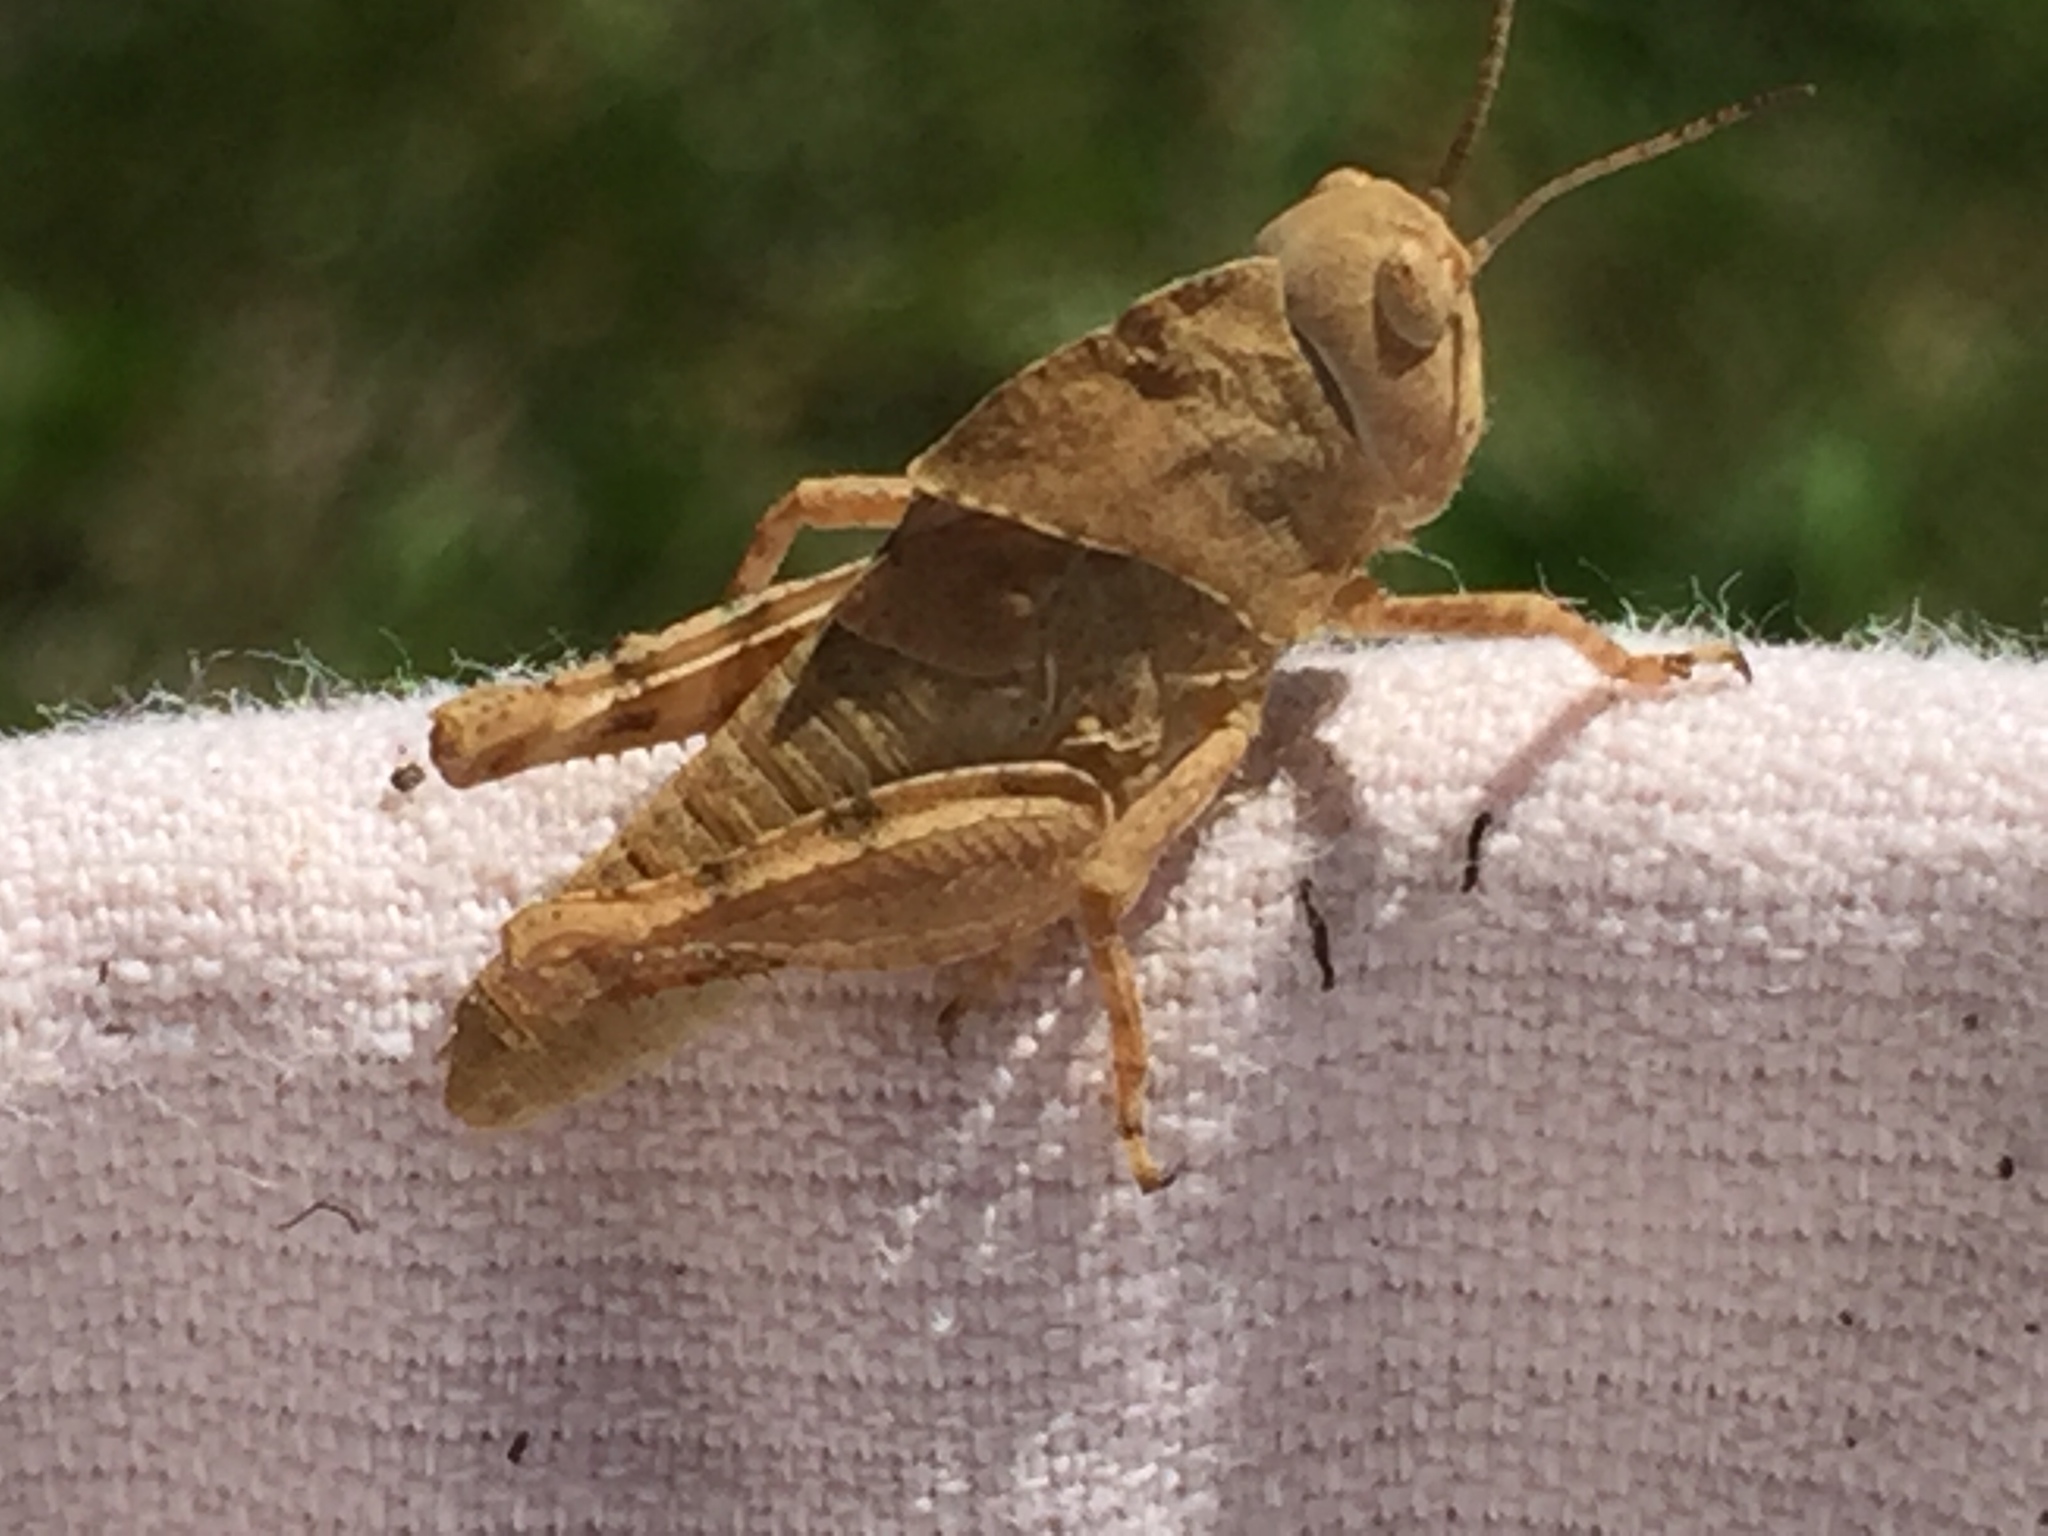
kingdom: Animalia
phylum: Arthropoda
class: Insecta
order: Orthoptera
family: Acrididae
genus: Dissosteira
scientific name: Dissosteira carolina
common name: Carolina grasshopper
